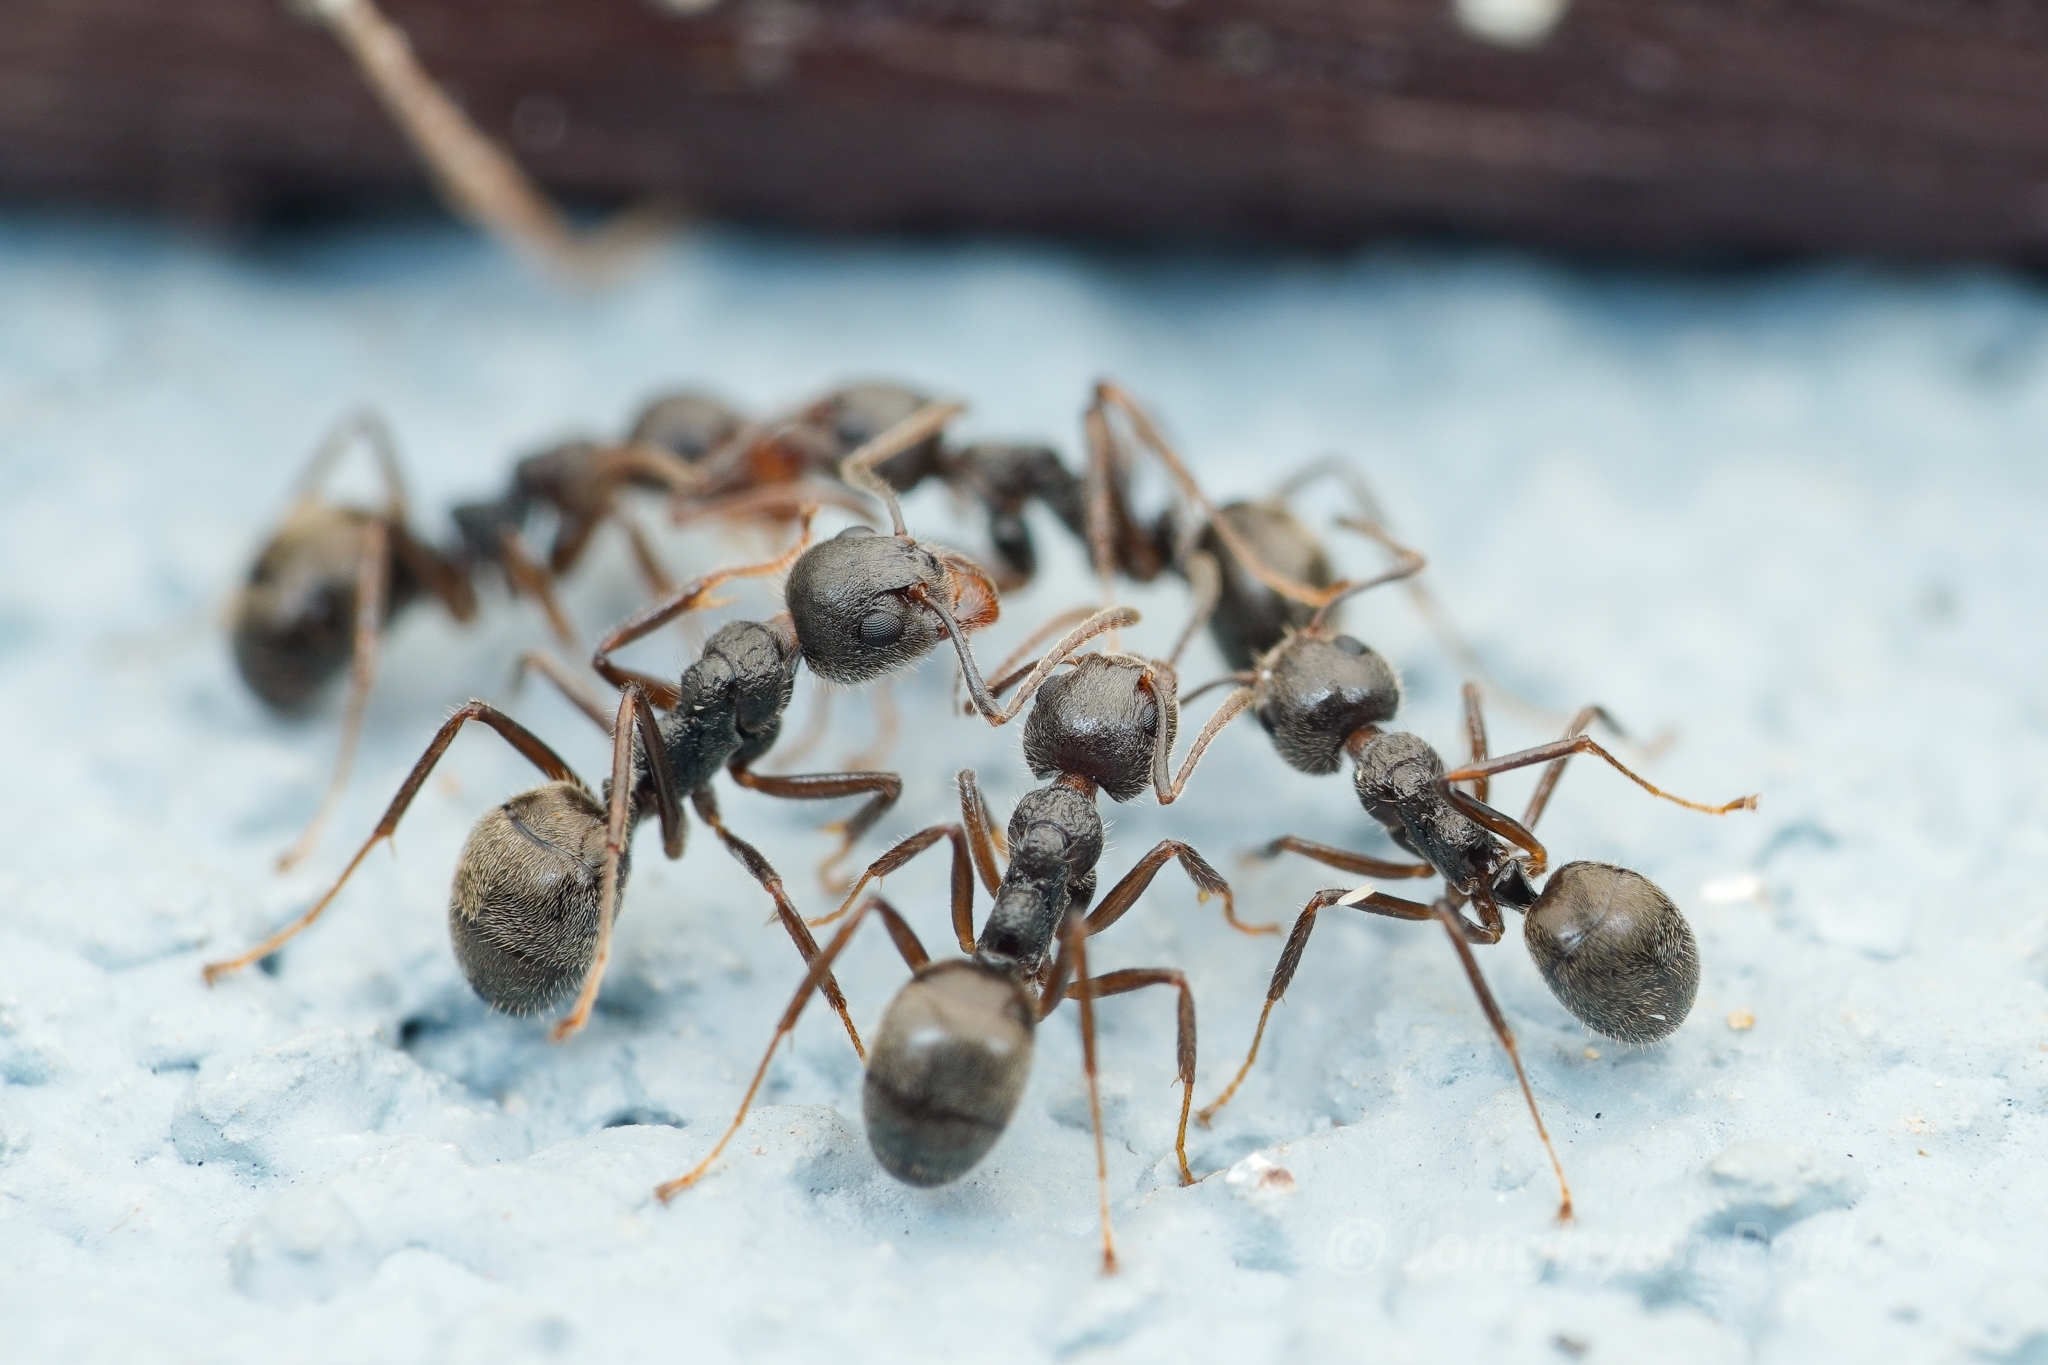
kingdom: Animalia
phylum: Arthropoda
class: Insecta
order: Hymenoptera
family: Formicidae
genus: Dolichoderus
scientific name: Dolichoderus thoracicus
